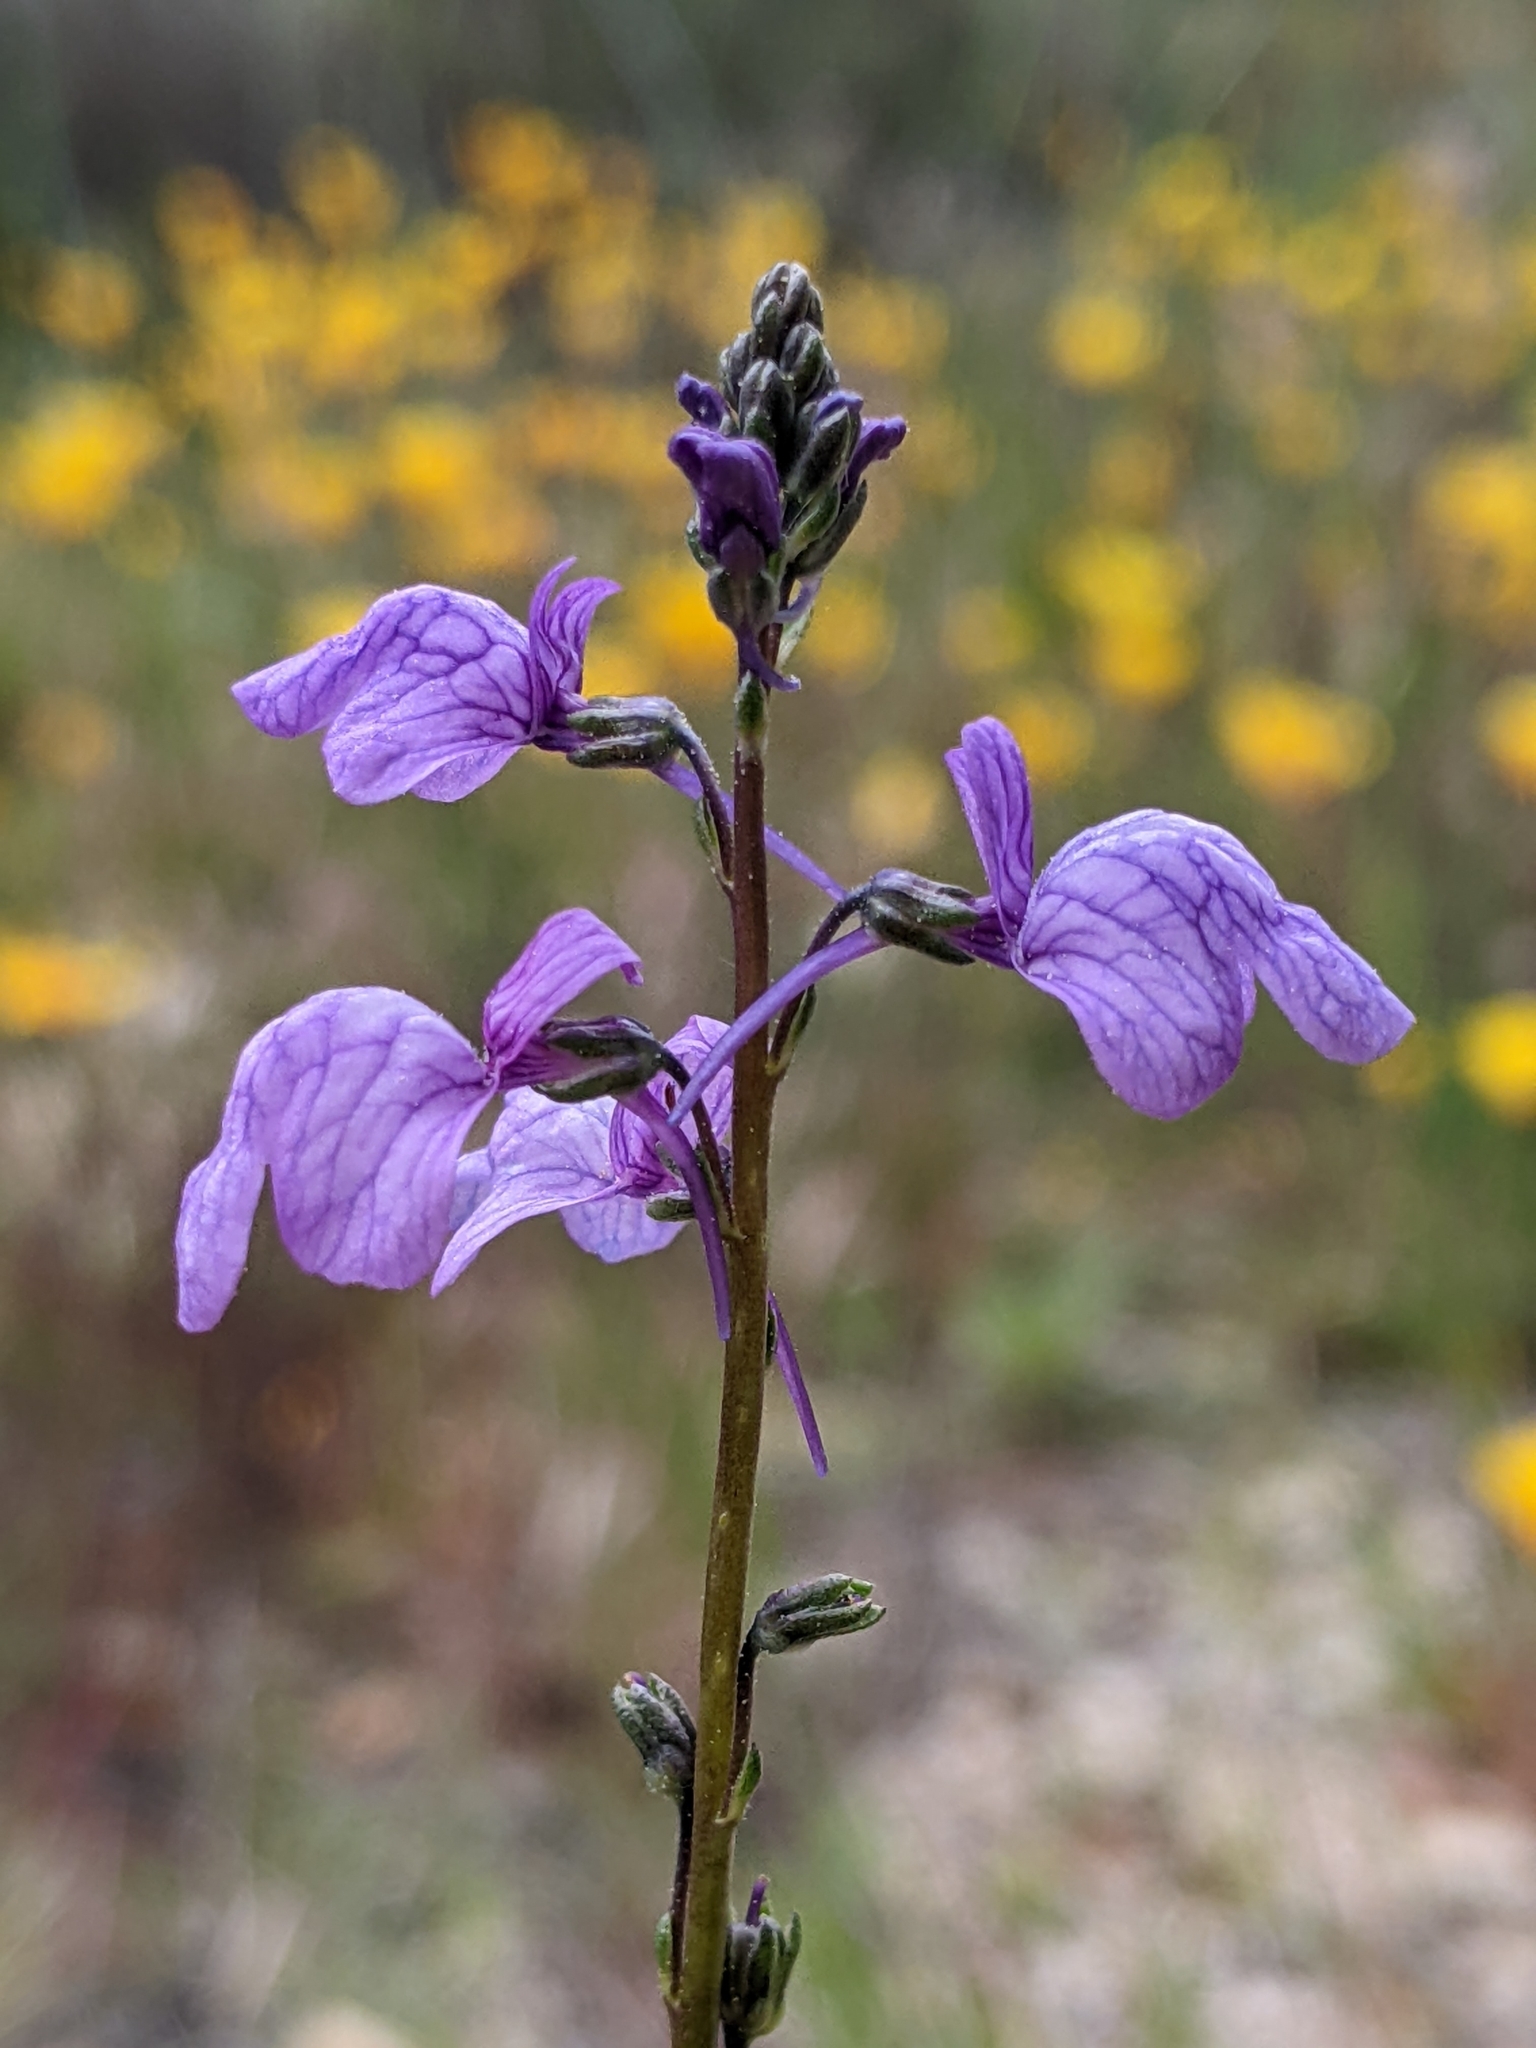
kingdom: Plantae
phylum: Tracheophyta
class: Magnoliopsida
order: Lamiales
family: Plantaginaceae
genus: Nuttallanthus
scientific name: Nuttallanthus texanus
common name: Texas toadflax
